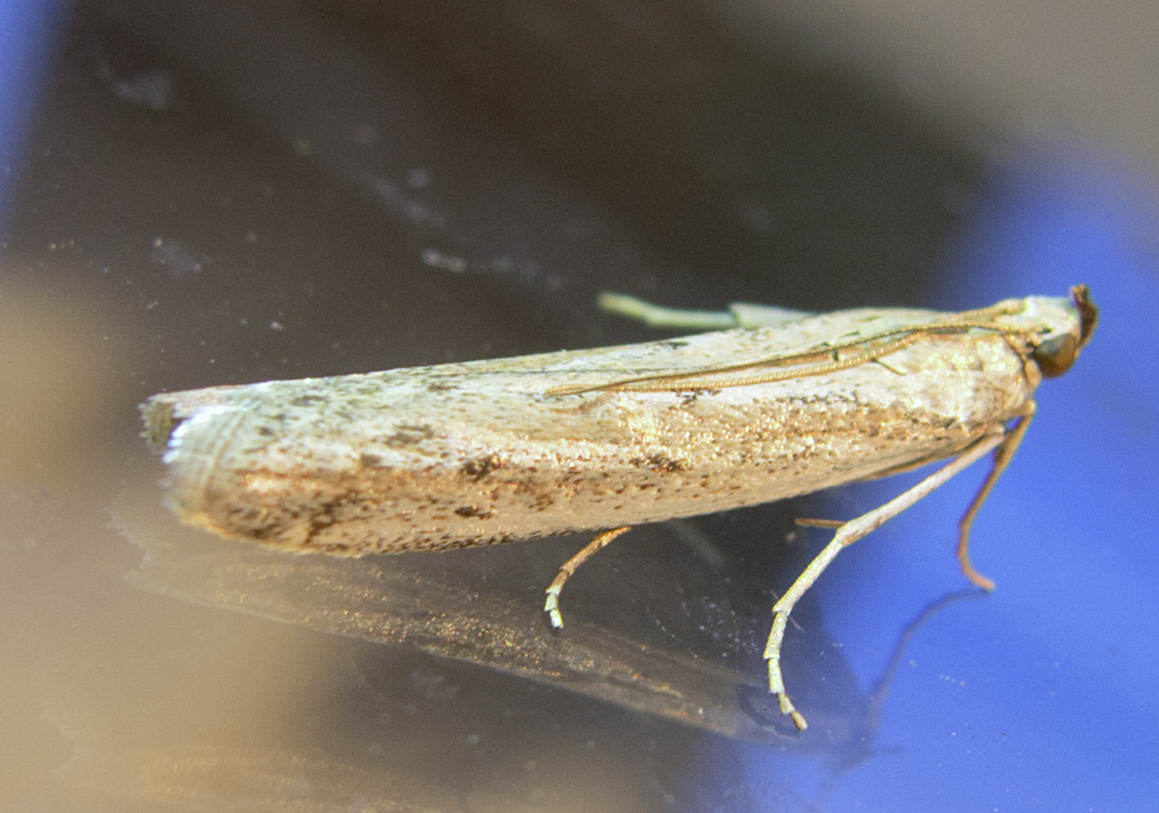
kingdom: Animalia
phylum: Arthropoda
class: Insecta
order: Lepidoptera
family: Pyralidae
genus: Homoeosoma
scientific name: Homoeosoma
